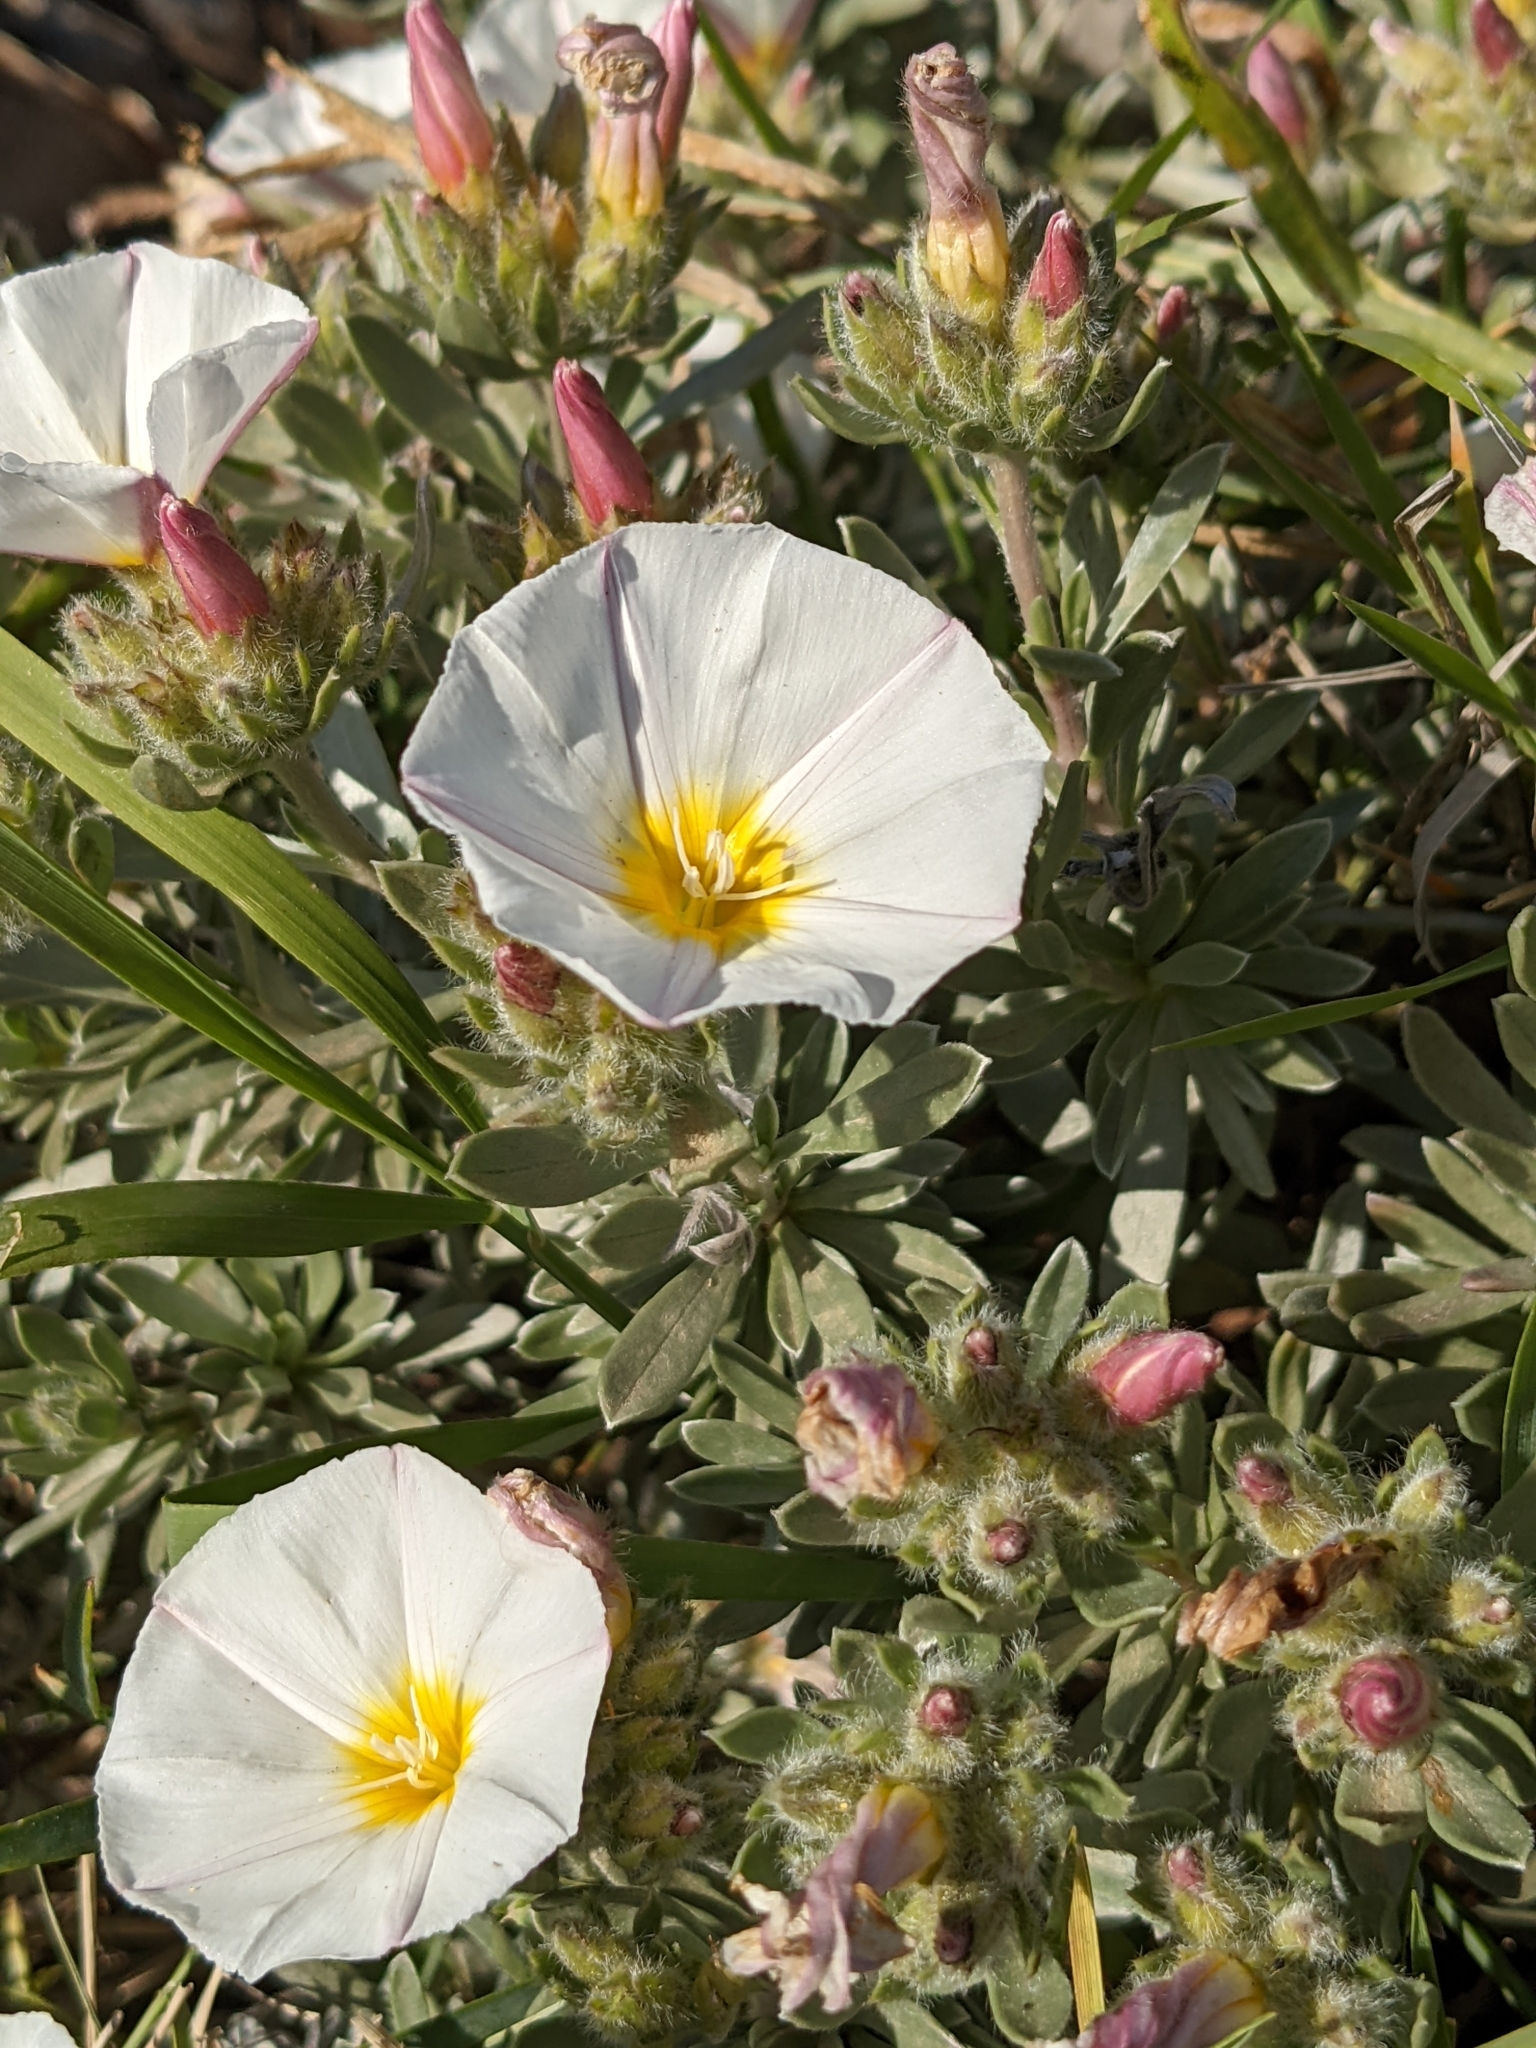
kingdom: Plantae
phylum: Tracheophyta
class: Magnoliopsida
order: Solanales
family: Convolvulaceae
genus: Convolvulus
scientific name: Convolvulus cneorum
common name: Silverbush
